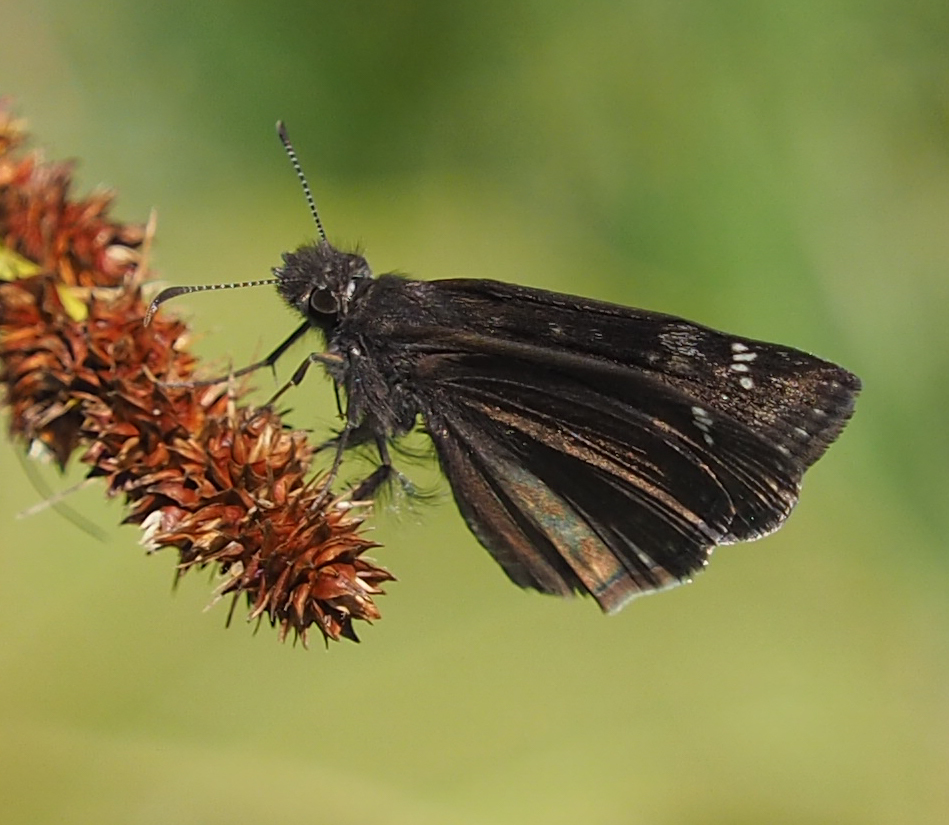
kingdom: Animalia
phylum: Arthropoda
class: Insecta
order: Lepidoptera
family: Hesperiidae
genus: Erynnis
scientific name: Erynnis baptisiae
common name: Wild indigo duskywing
